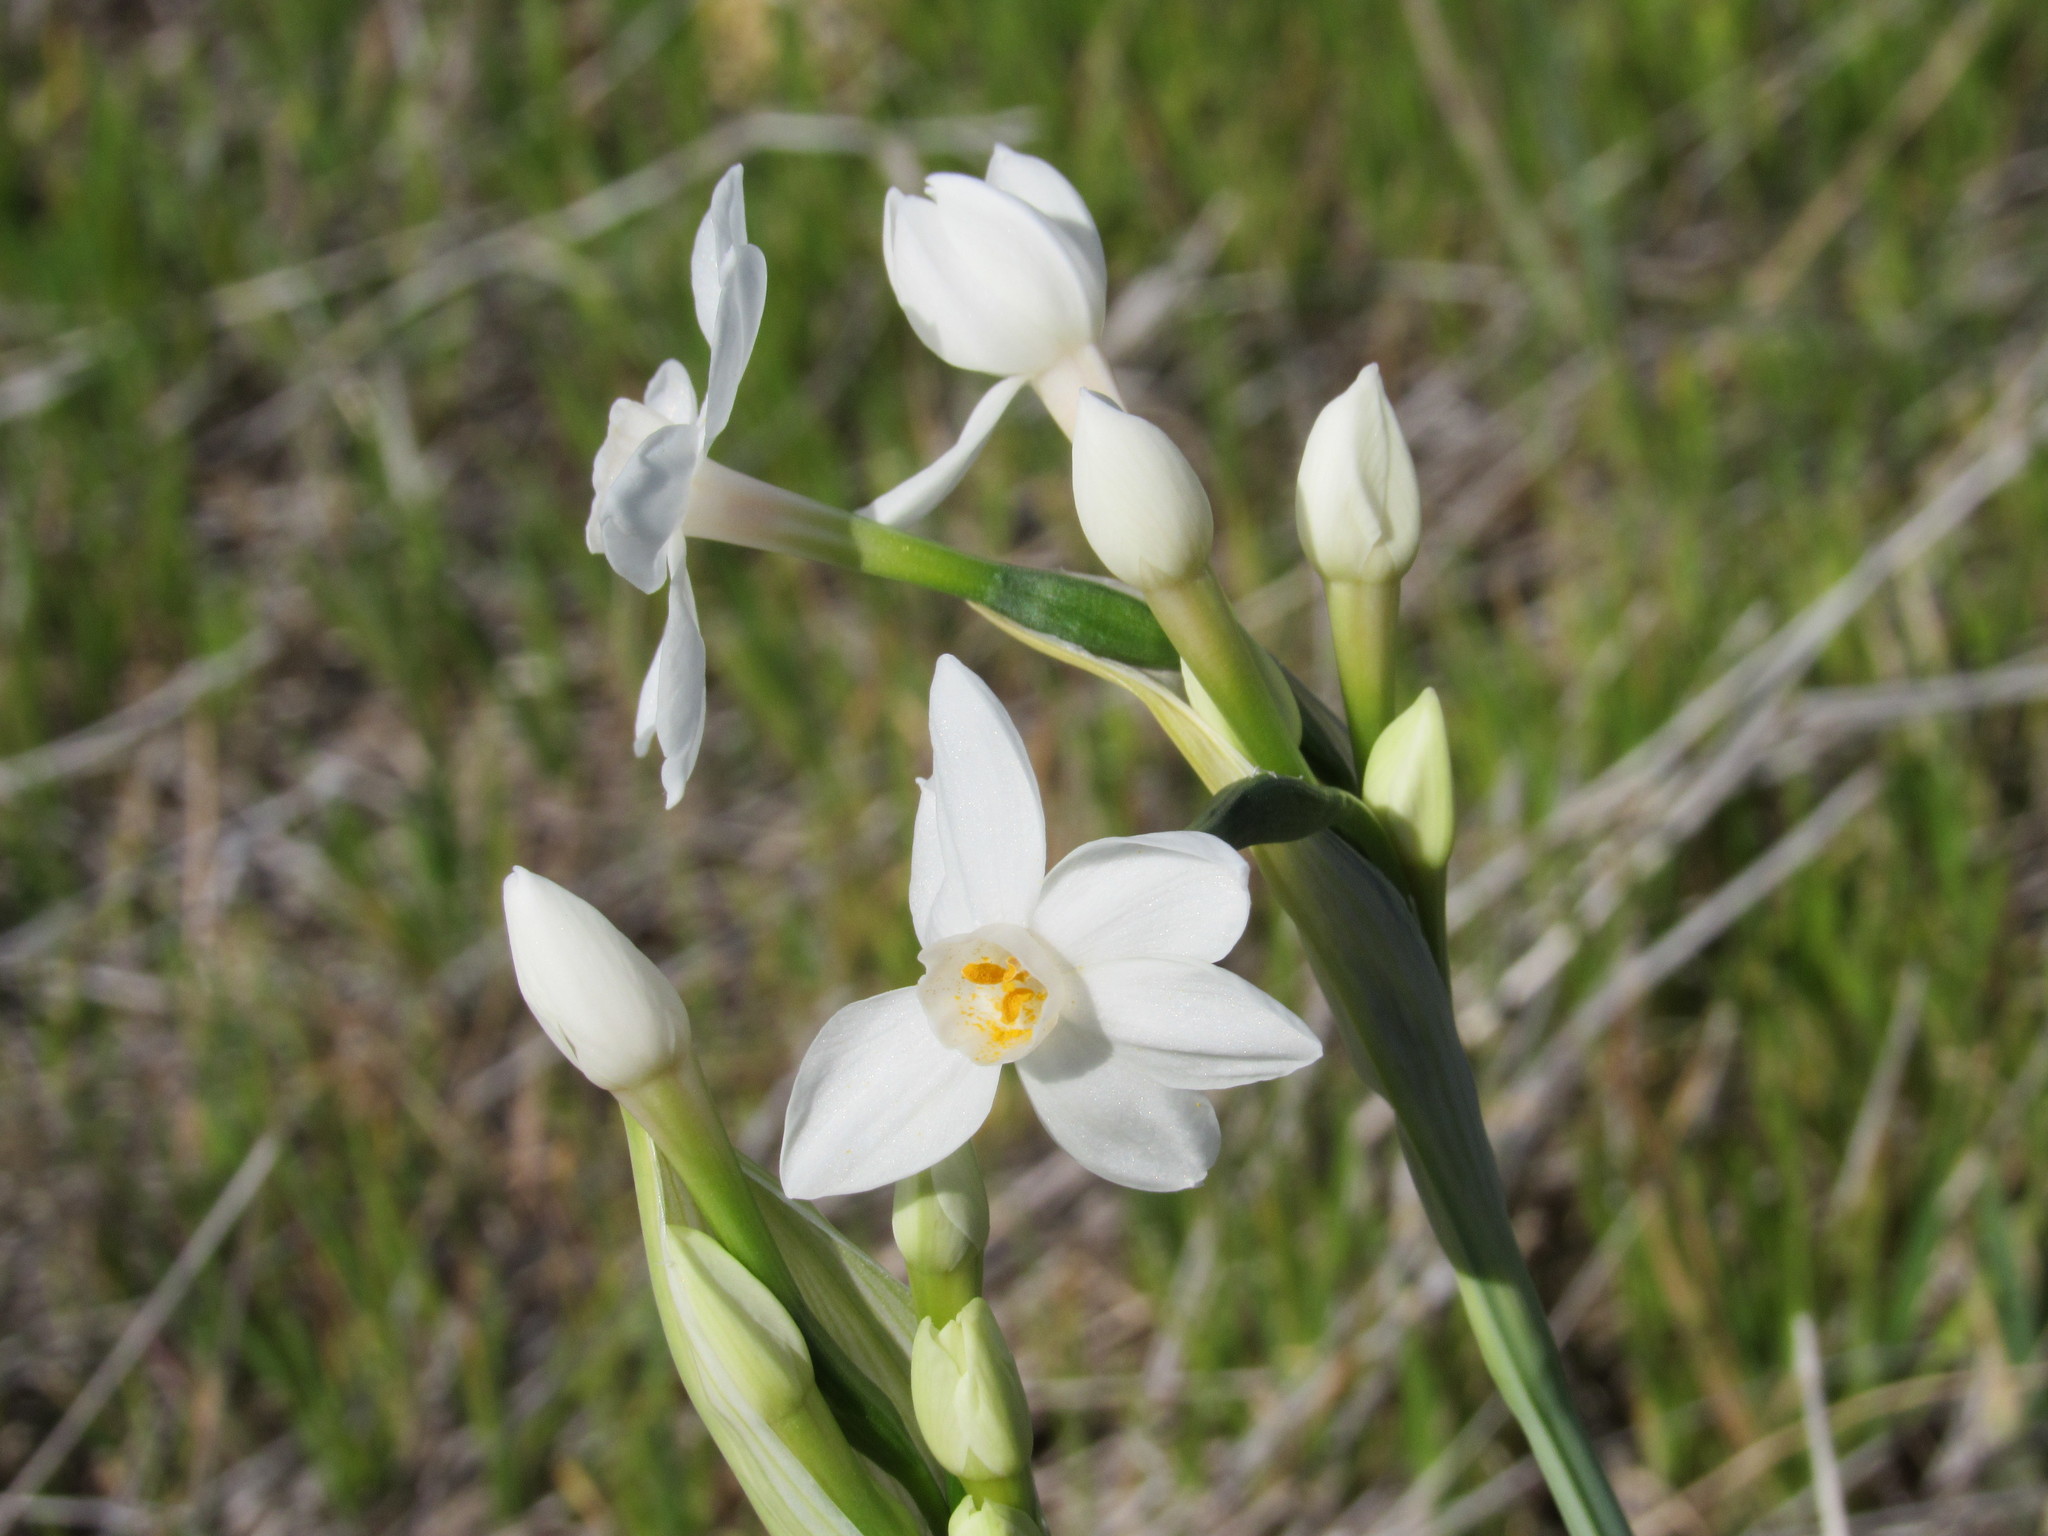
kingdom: Plantae
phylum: Tracheophyta
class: Liliopsida
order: Asparagales
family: Amaryllidaceae
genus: Narcissus
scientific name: Narcissus papyraceus
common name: Paper-white daffodil
